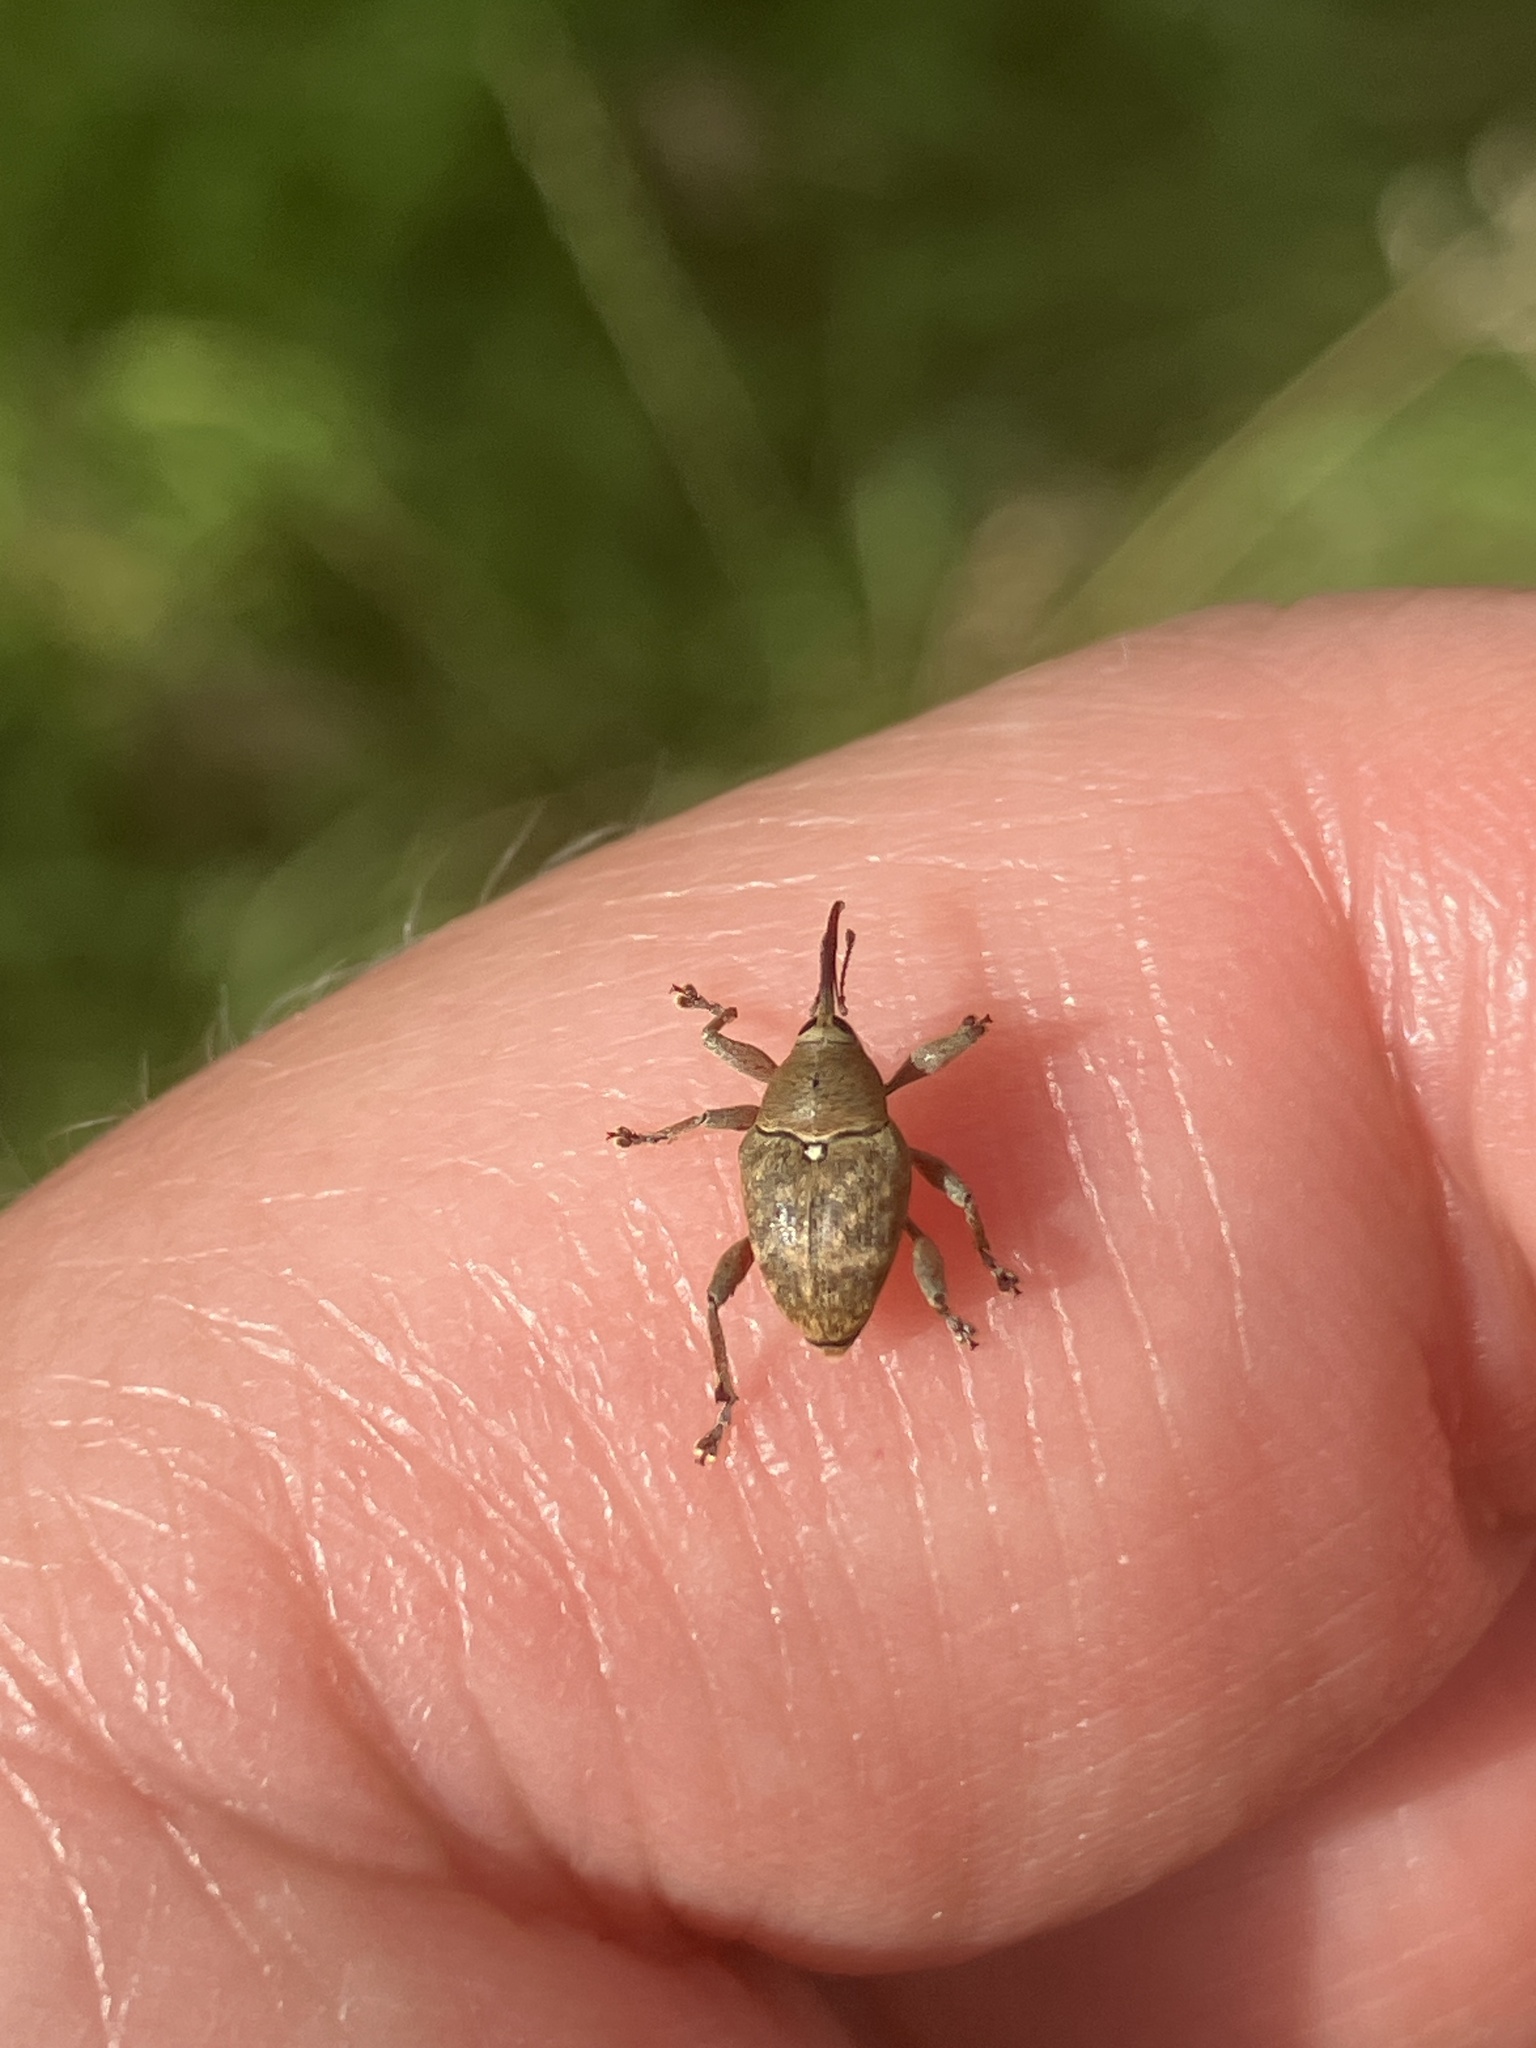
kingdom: Animalia
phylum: Arthropoda
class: Insecta
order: Coleoptera
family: Curculionidae
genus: Curculio
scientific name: Curculio nucum
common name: Nut weevil
